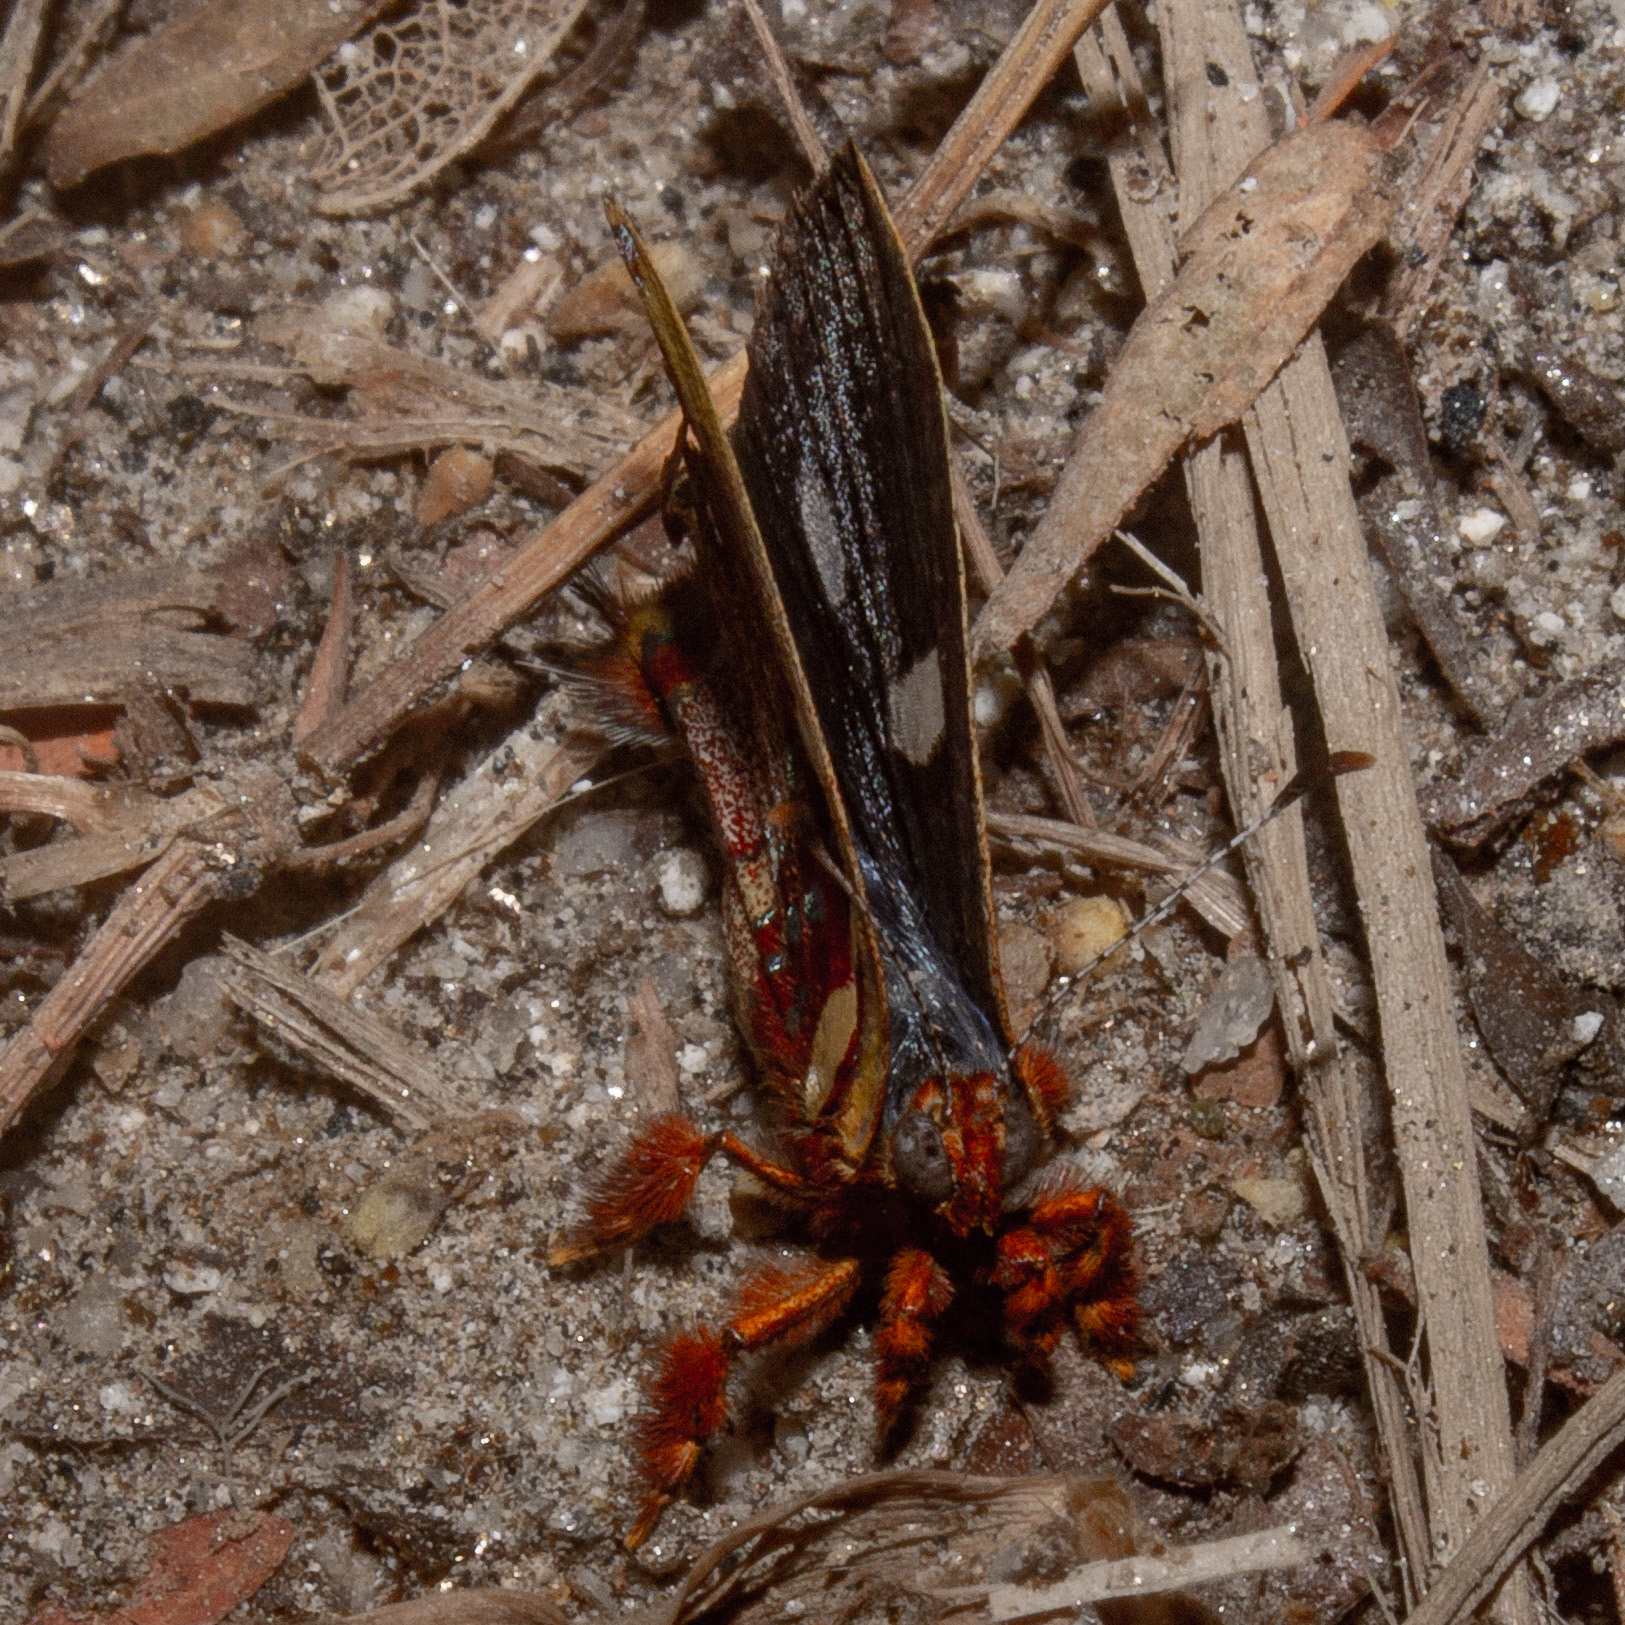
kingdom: Animalia
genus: Anteros
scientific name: Anteros carausius
